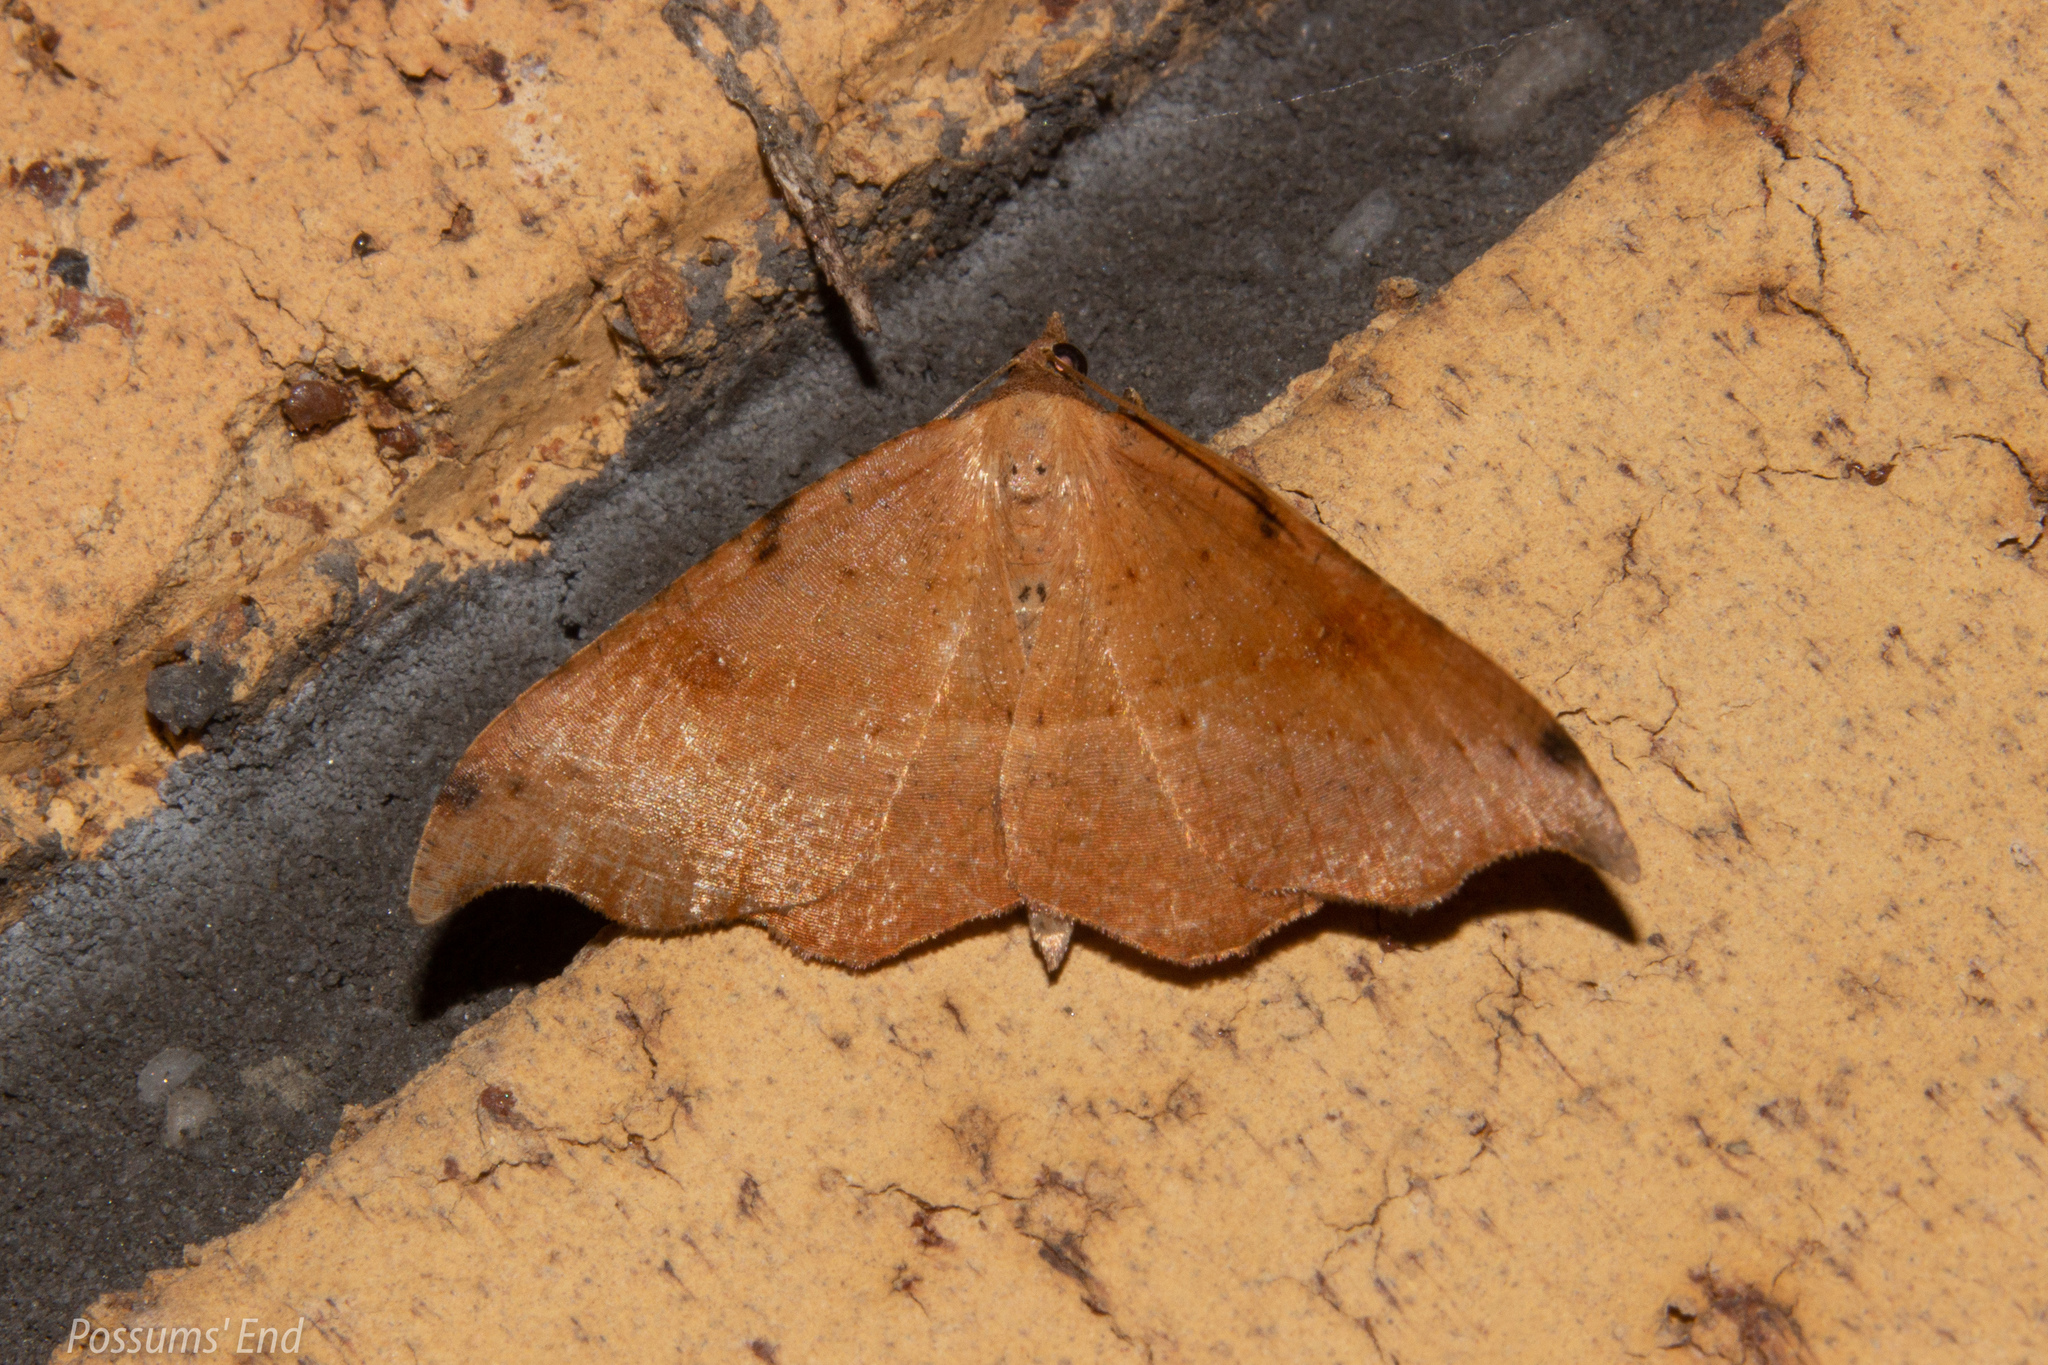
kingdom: Animalia
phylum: Arthropoda
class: Insecta
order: Lepidoptera
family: Geometridae
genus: Sarisa
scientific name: Sarisa muriferata
